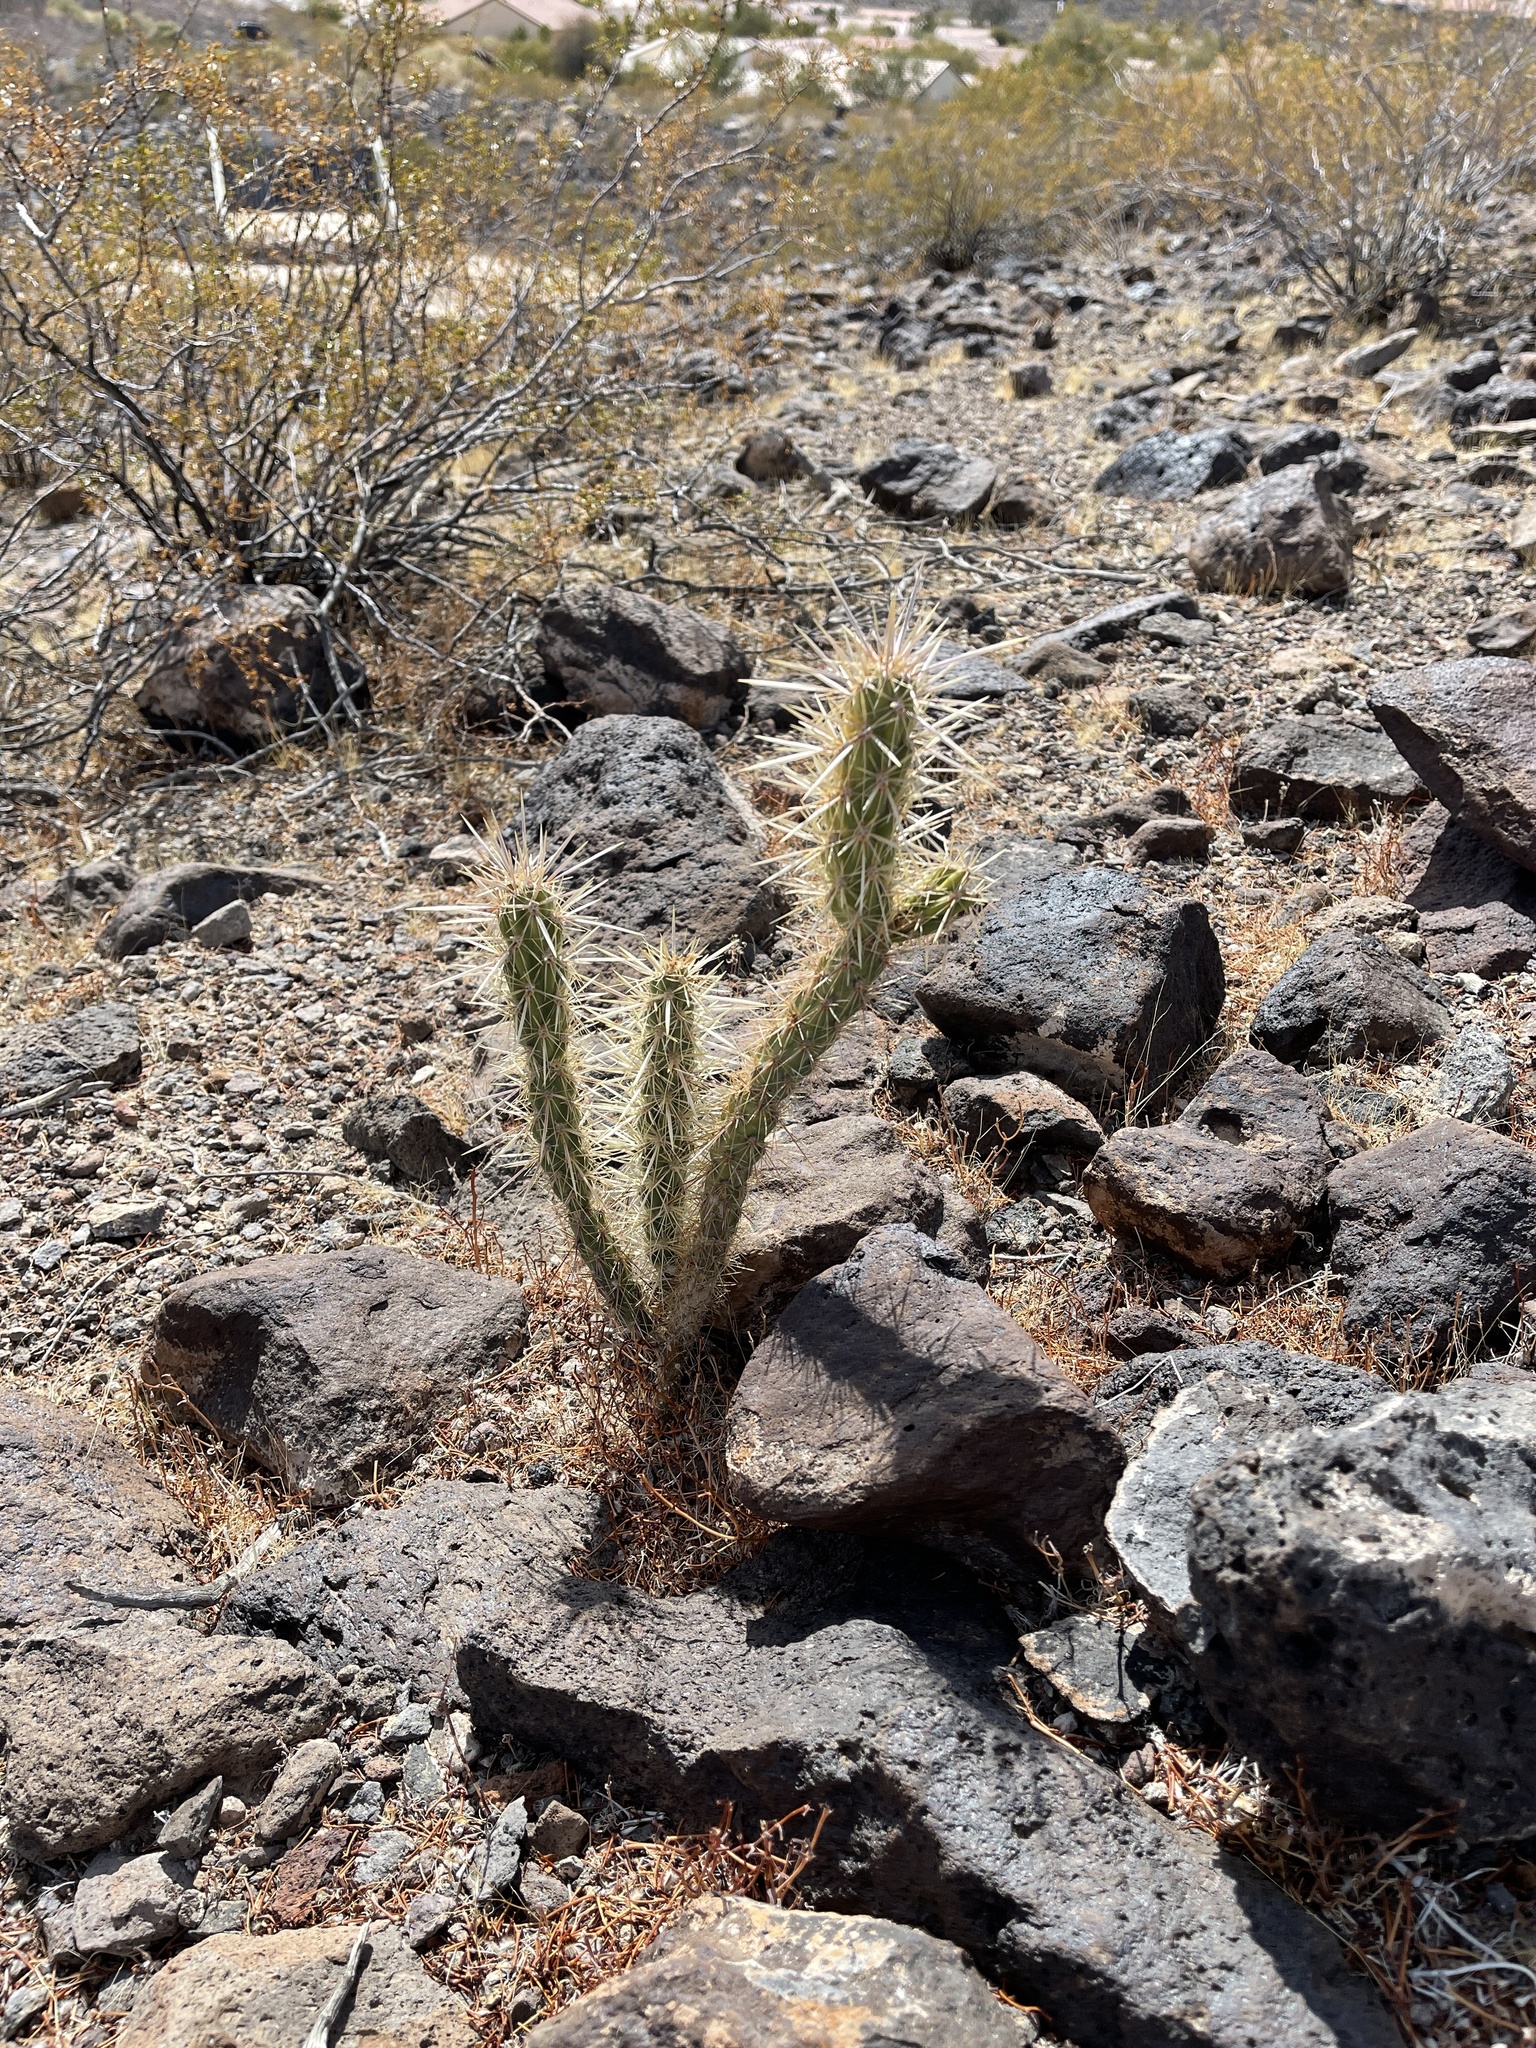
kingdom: Plantae
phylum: Tracheophyta
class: Magnoliopsida
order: Caryophyllales
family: Cactaceae
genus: Cylindropuntia
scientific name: Cylindropuntia acanthocarpa
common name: Buckhorn cholla
